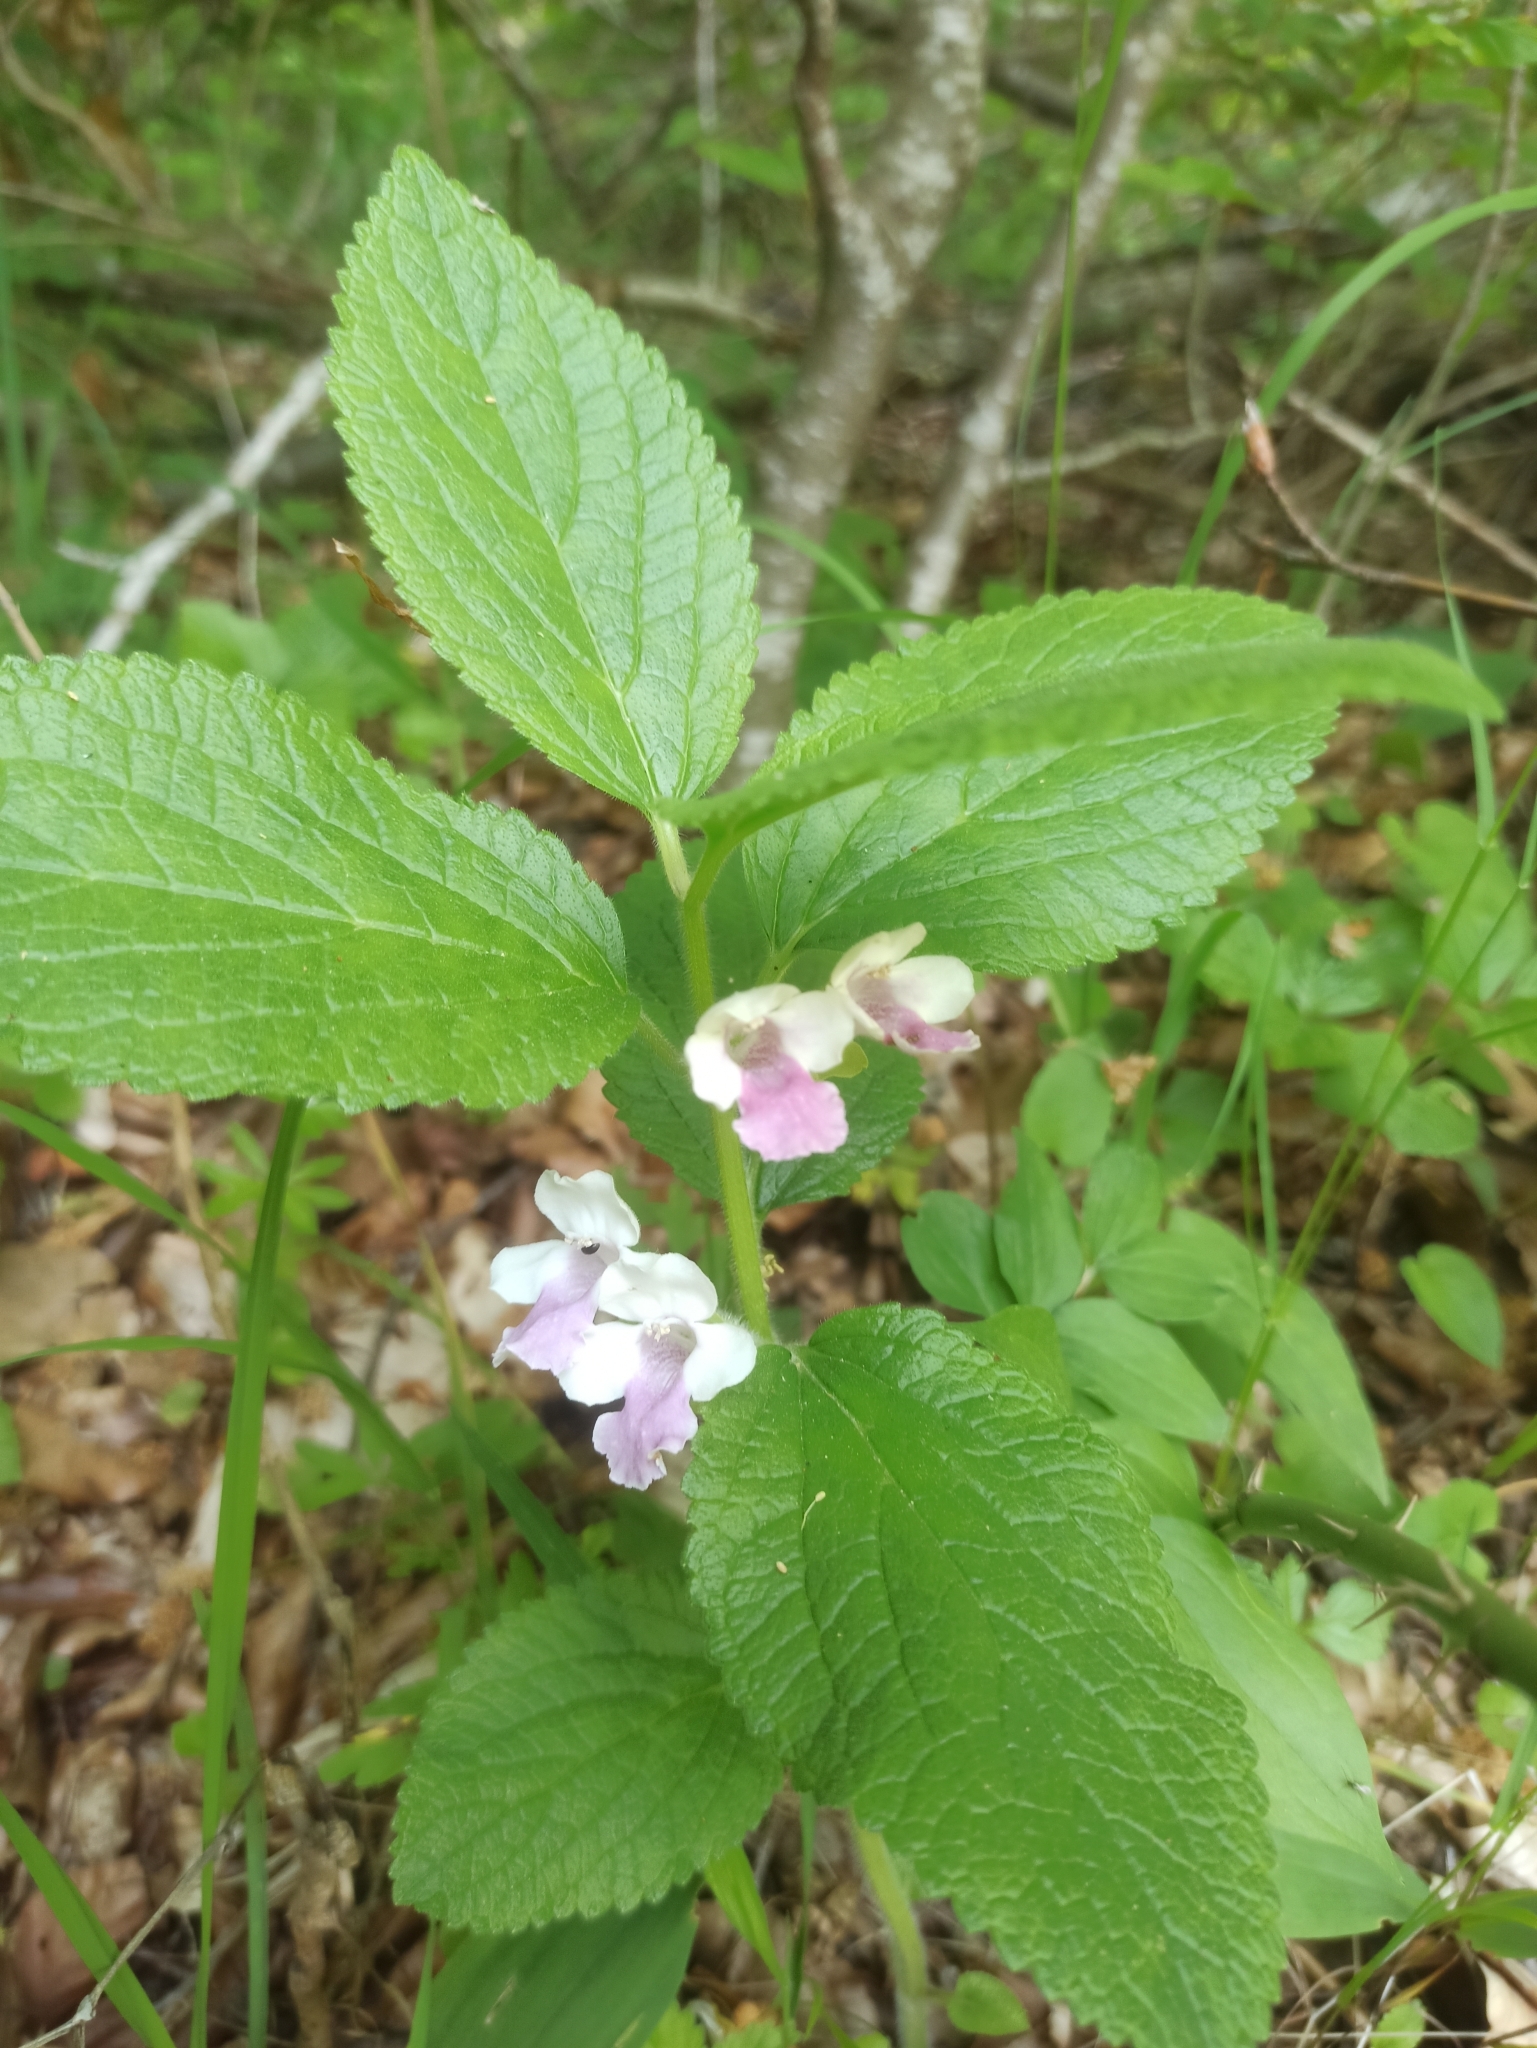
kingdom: Plantae
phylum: Tracheophyta
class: Magnoliopsida
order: Lamiales
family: Lamiaceae
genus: Melittis
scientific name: Melittis melissophyllum
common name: Bastard balm
